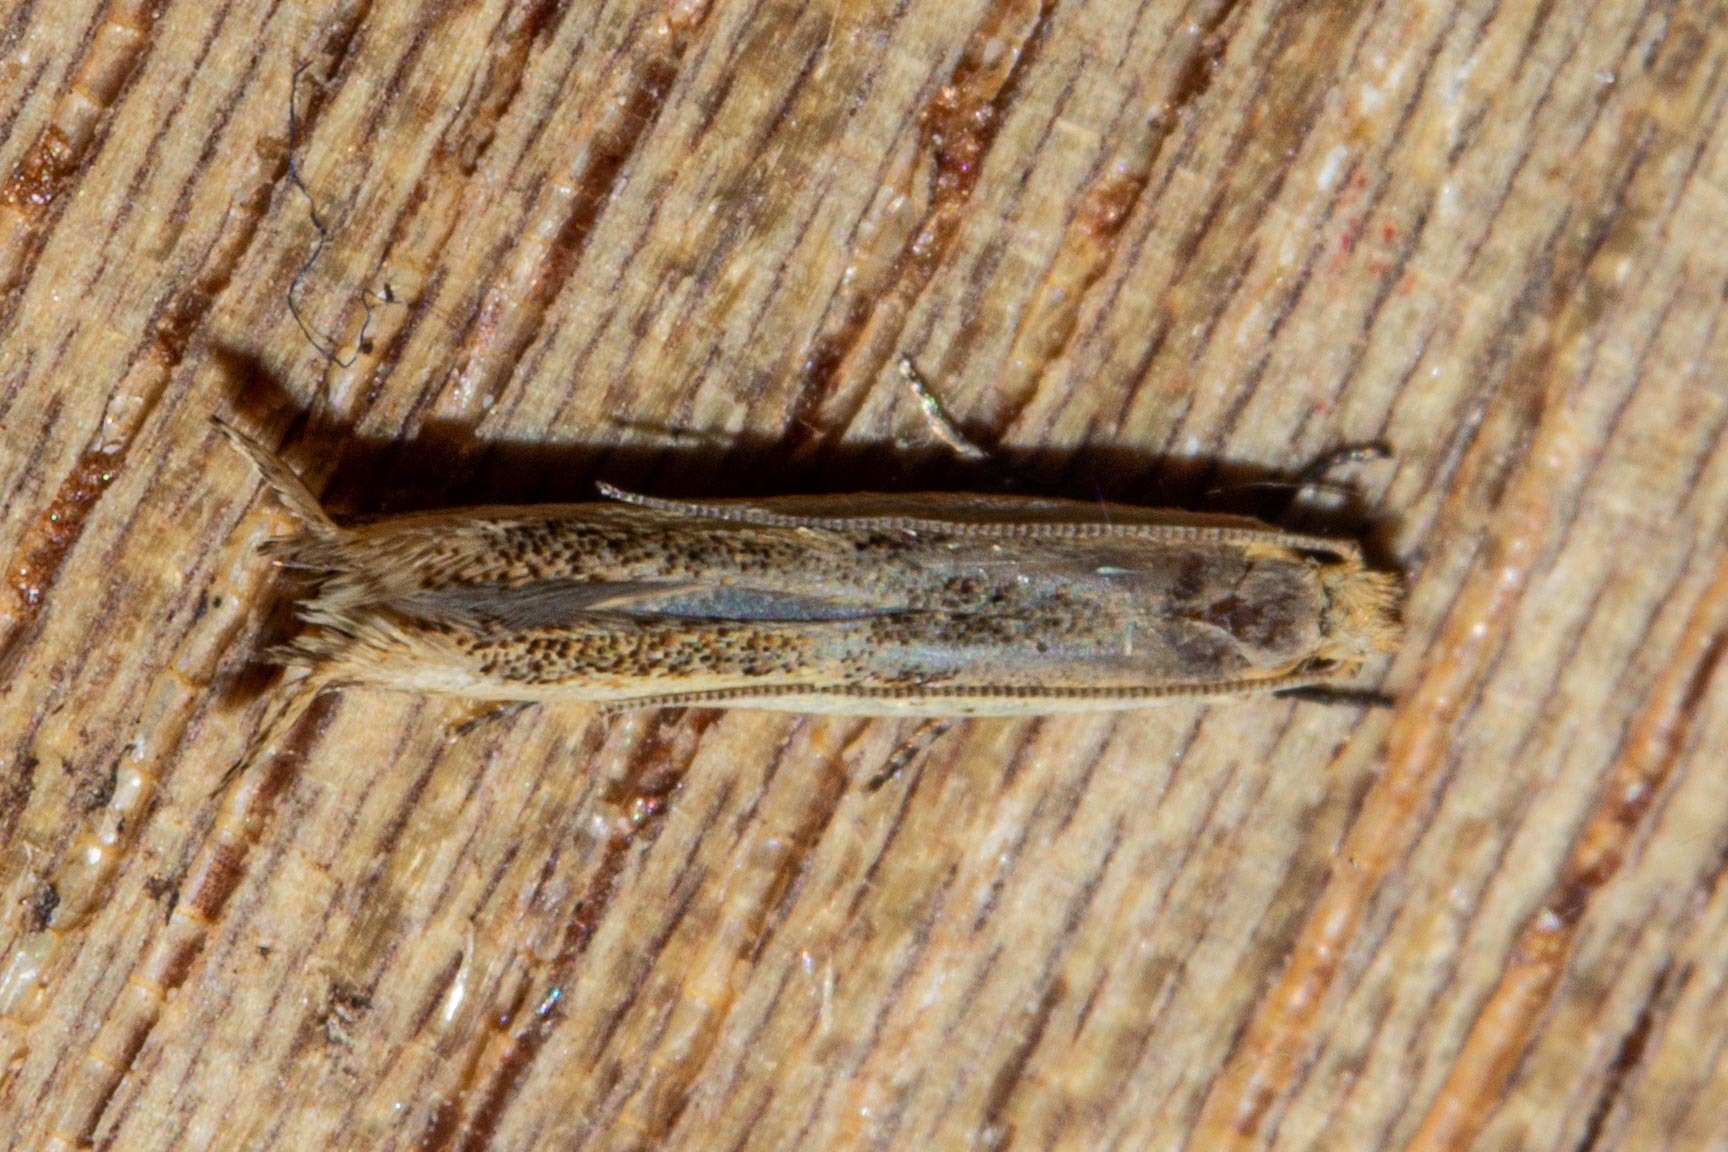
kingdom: Animalia
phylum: Arthropoda
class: Insecta
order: Lepidoptera
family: Tineidae
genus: Erechthias
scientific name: Erechthias charadrota
